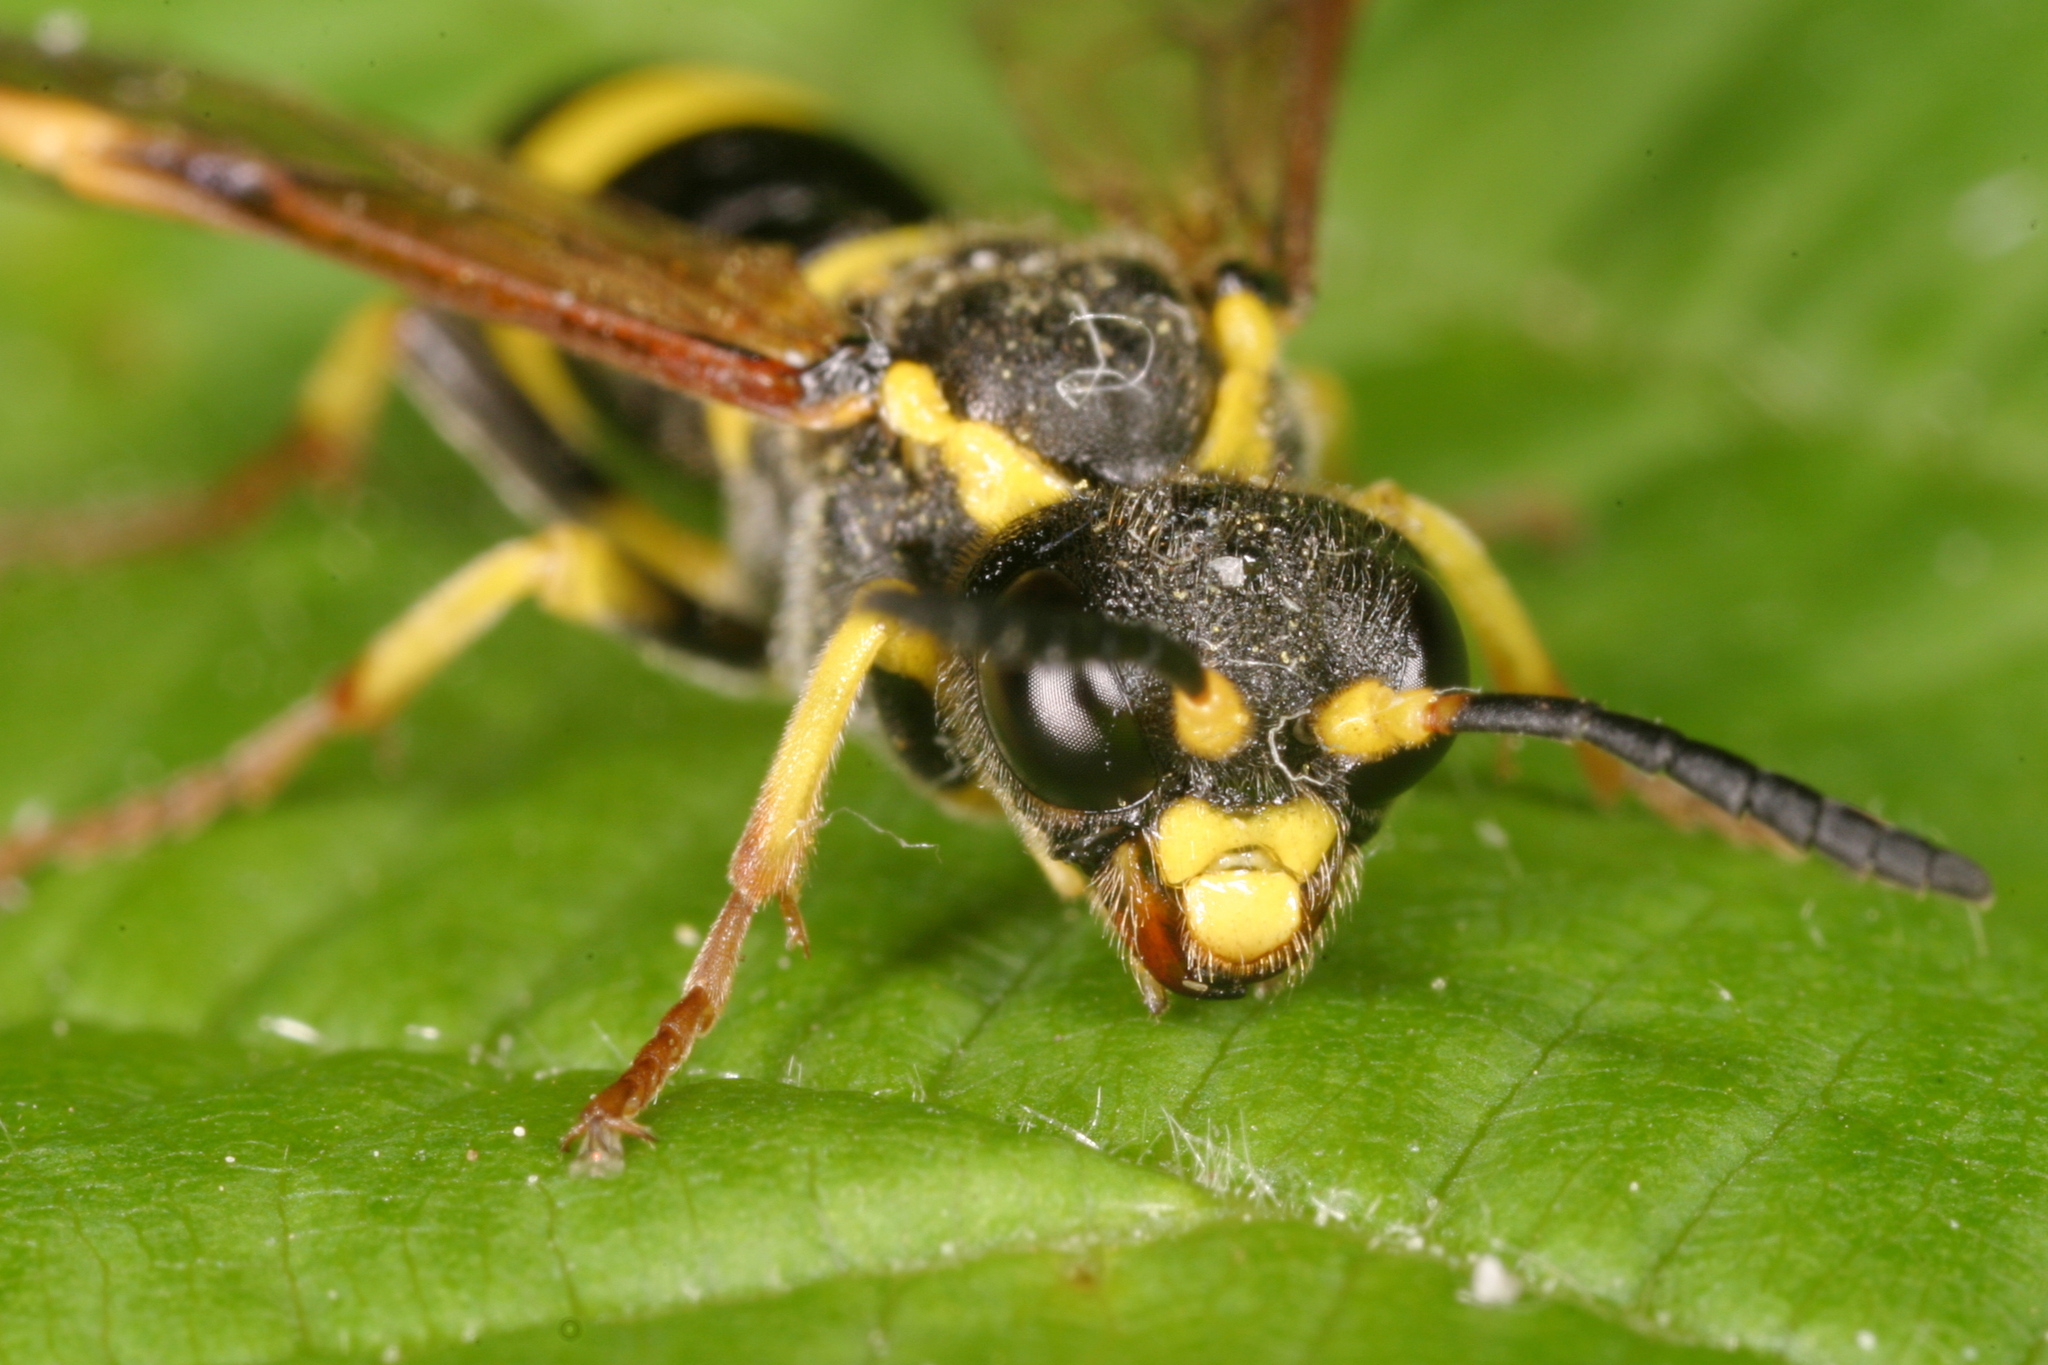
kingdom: Animalia
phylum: Arthropoda
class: Insecta
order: Hymenoptera
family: Tenthredinidae
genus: Tenthredo
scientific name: Tenthredo zona
